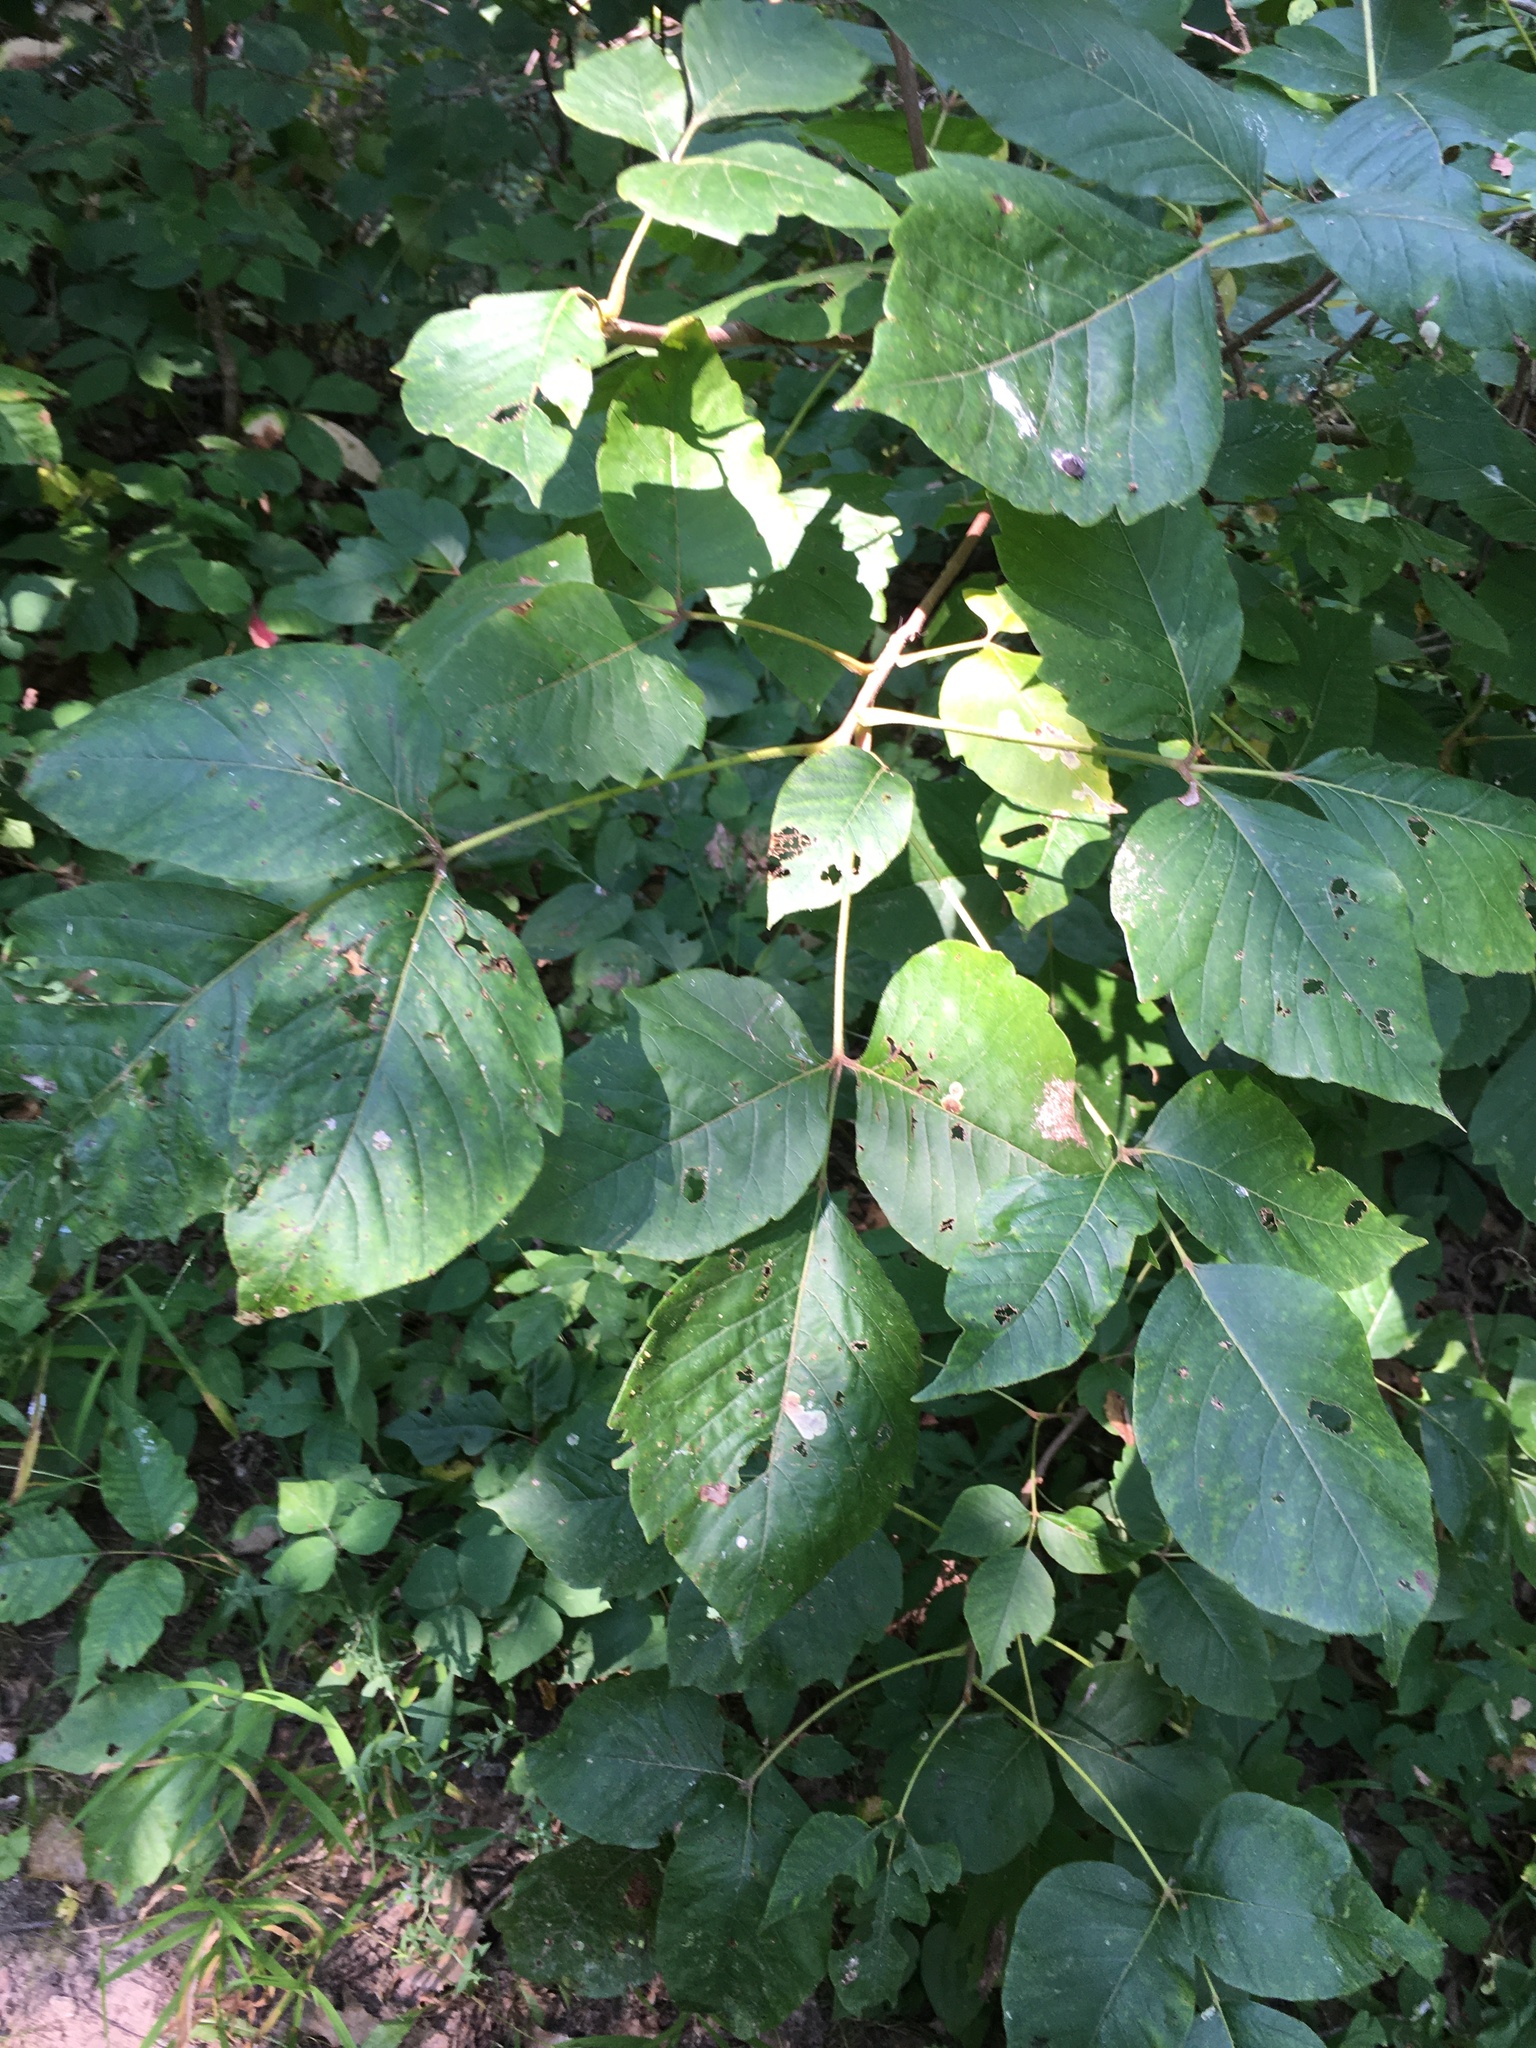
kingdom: Plantae
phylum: Tracheophyta
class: Magnoliopsida
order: Sapindales
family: Anacardiaceae
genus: Toxicodendron
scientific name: Toxicodendron radicans
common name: Poison ivy
